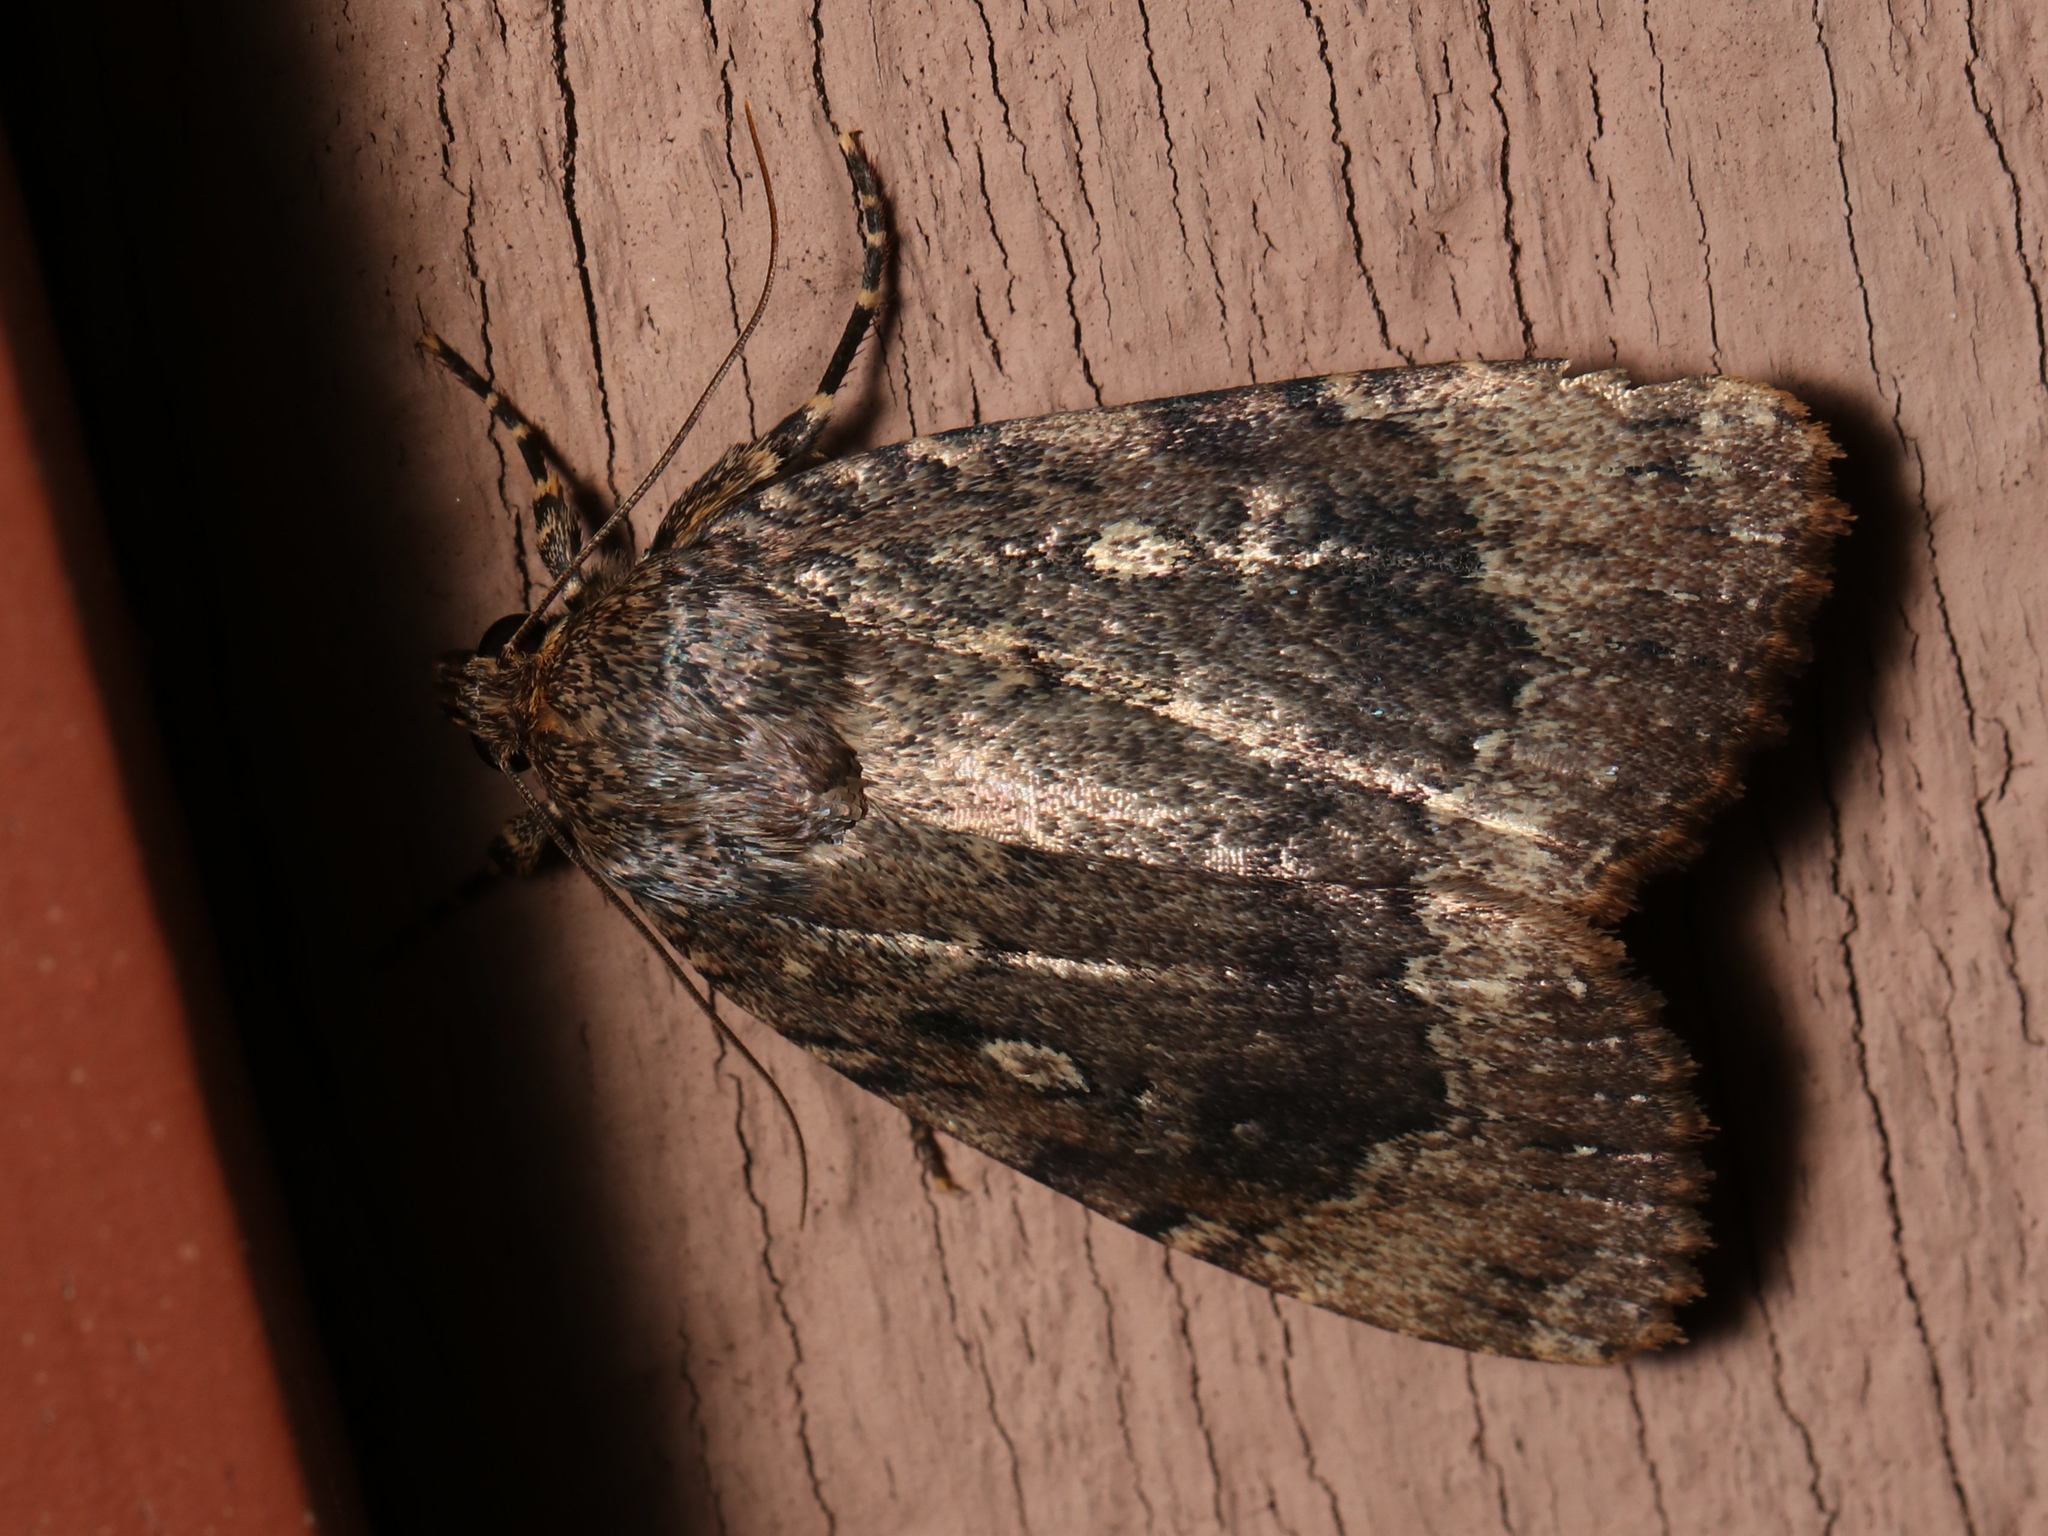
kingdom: Animalia
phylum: Arthropoda
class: Insecta
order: Lepidoptera
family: Noctuidae
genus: Amphipyra
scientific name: Amphipyra pyramidoides
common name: American copper underwing
